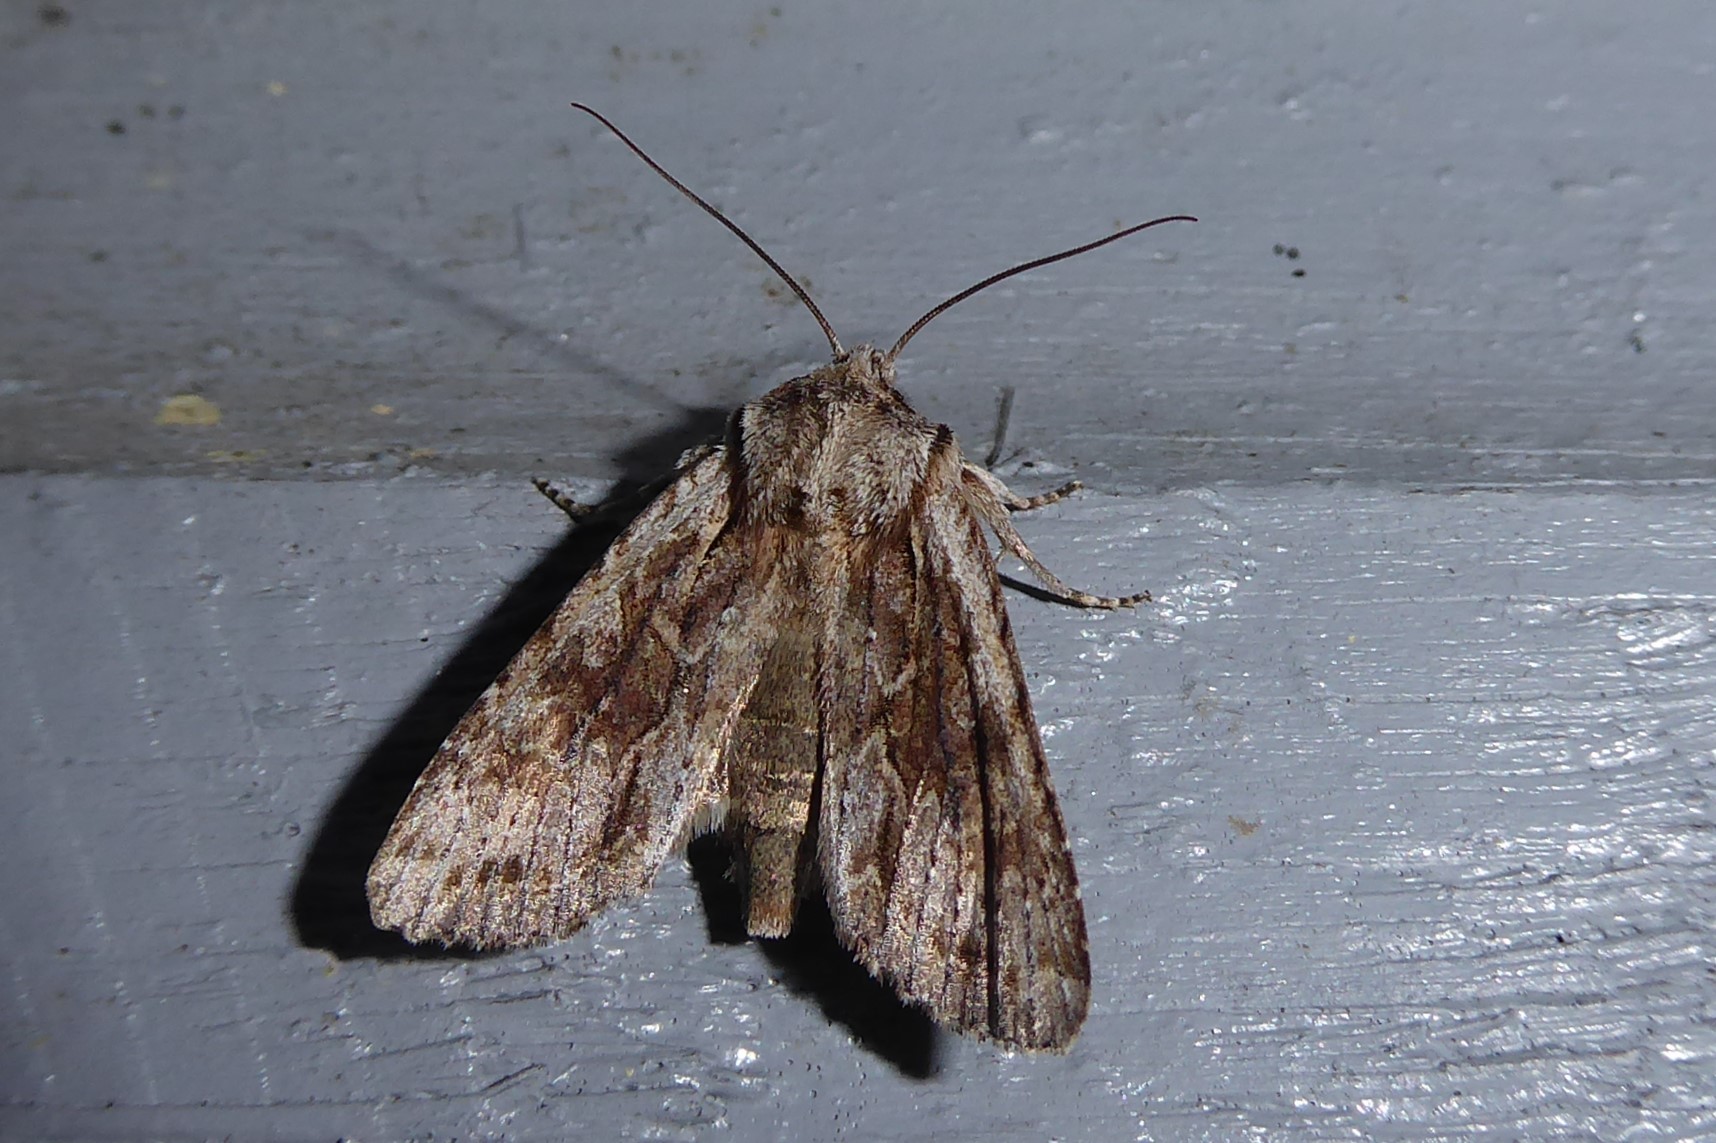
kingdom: Animalia
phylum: Arthropoda
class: Insecta
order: Lepidoptera
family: Noctuidae
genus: Ichneutica
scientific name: Ichneutica mutans
